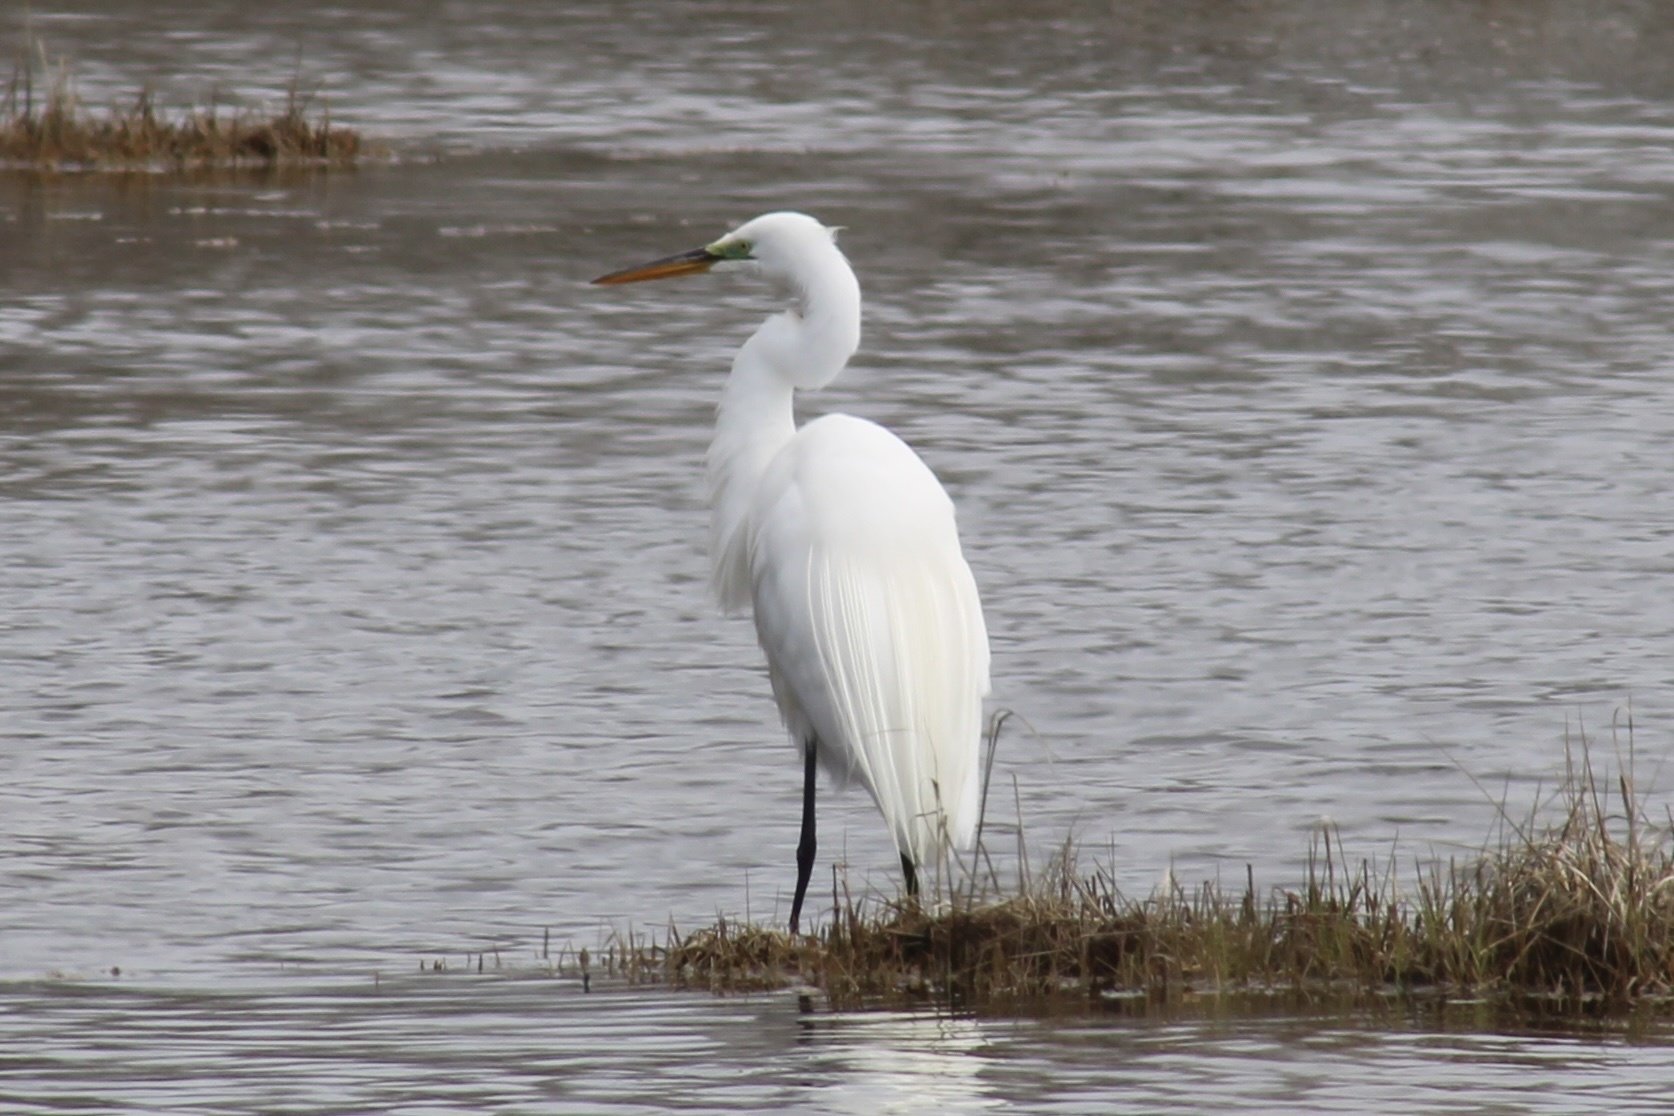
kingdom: Animalia
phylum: Chordata
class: Aves
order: Pelecaniformes
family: Ardeidae
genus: Ardea
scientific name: Ardea alba
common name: Great egret
